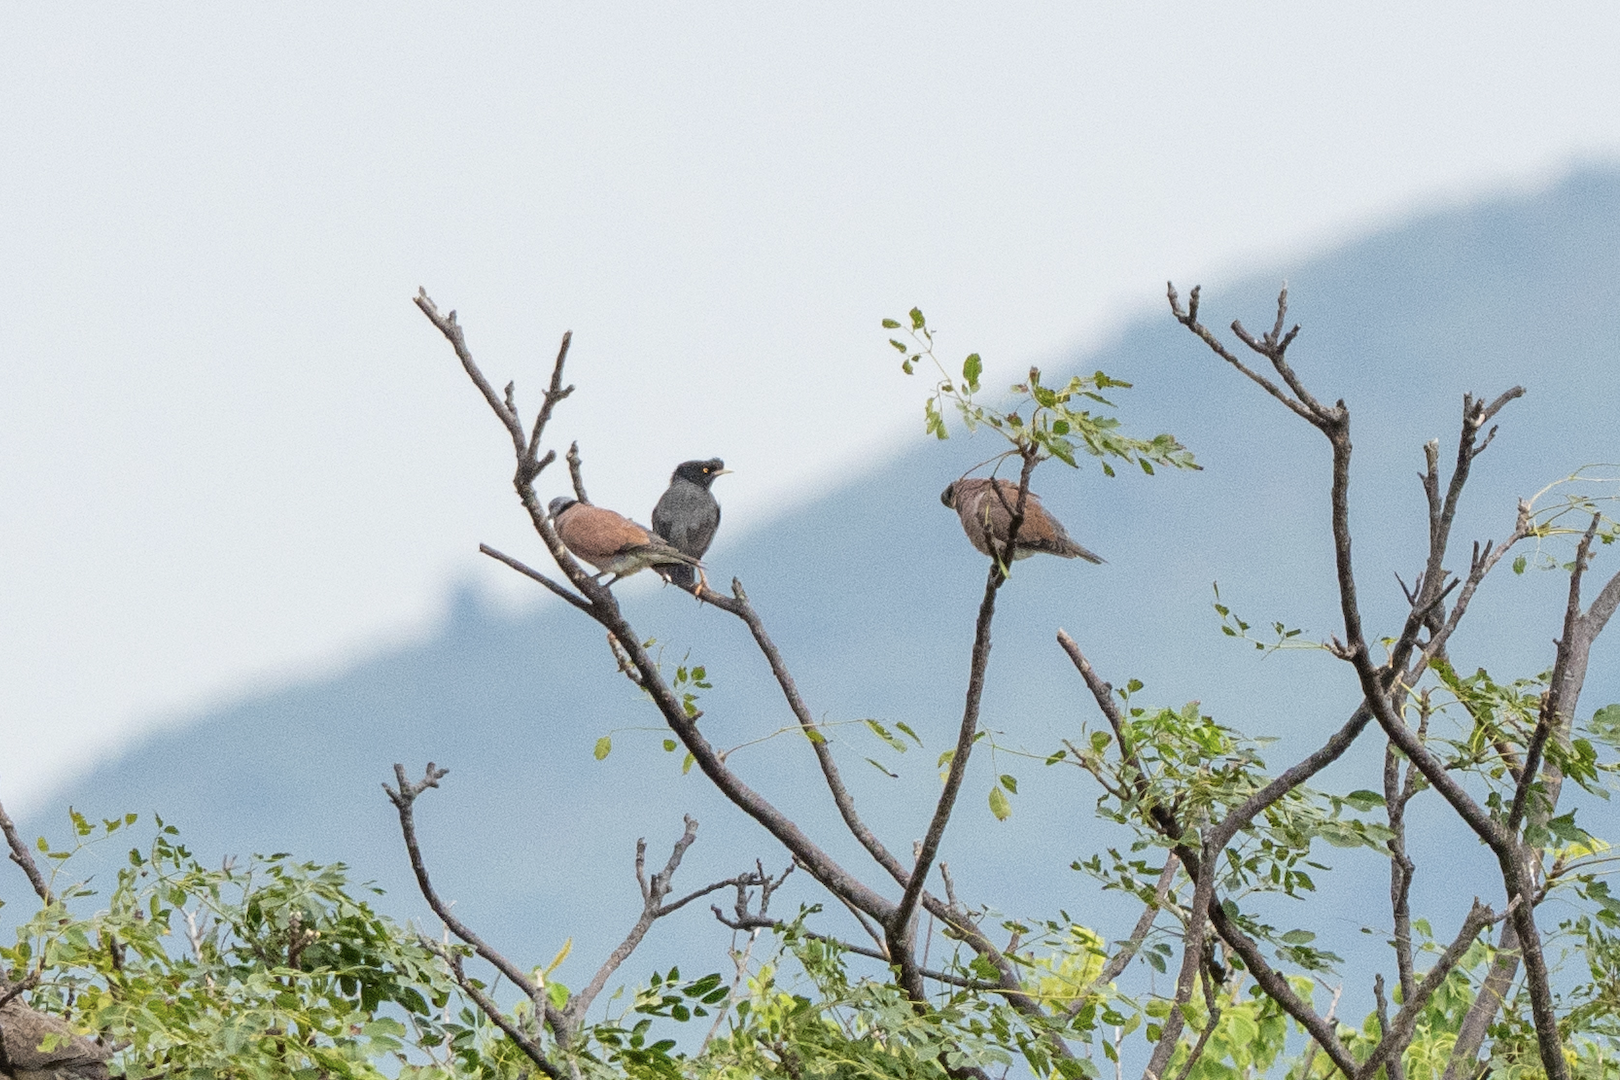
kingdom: Animalia
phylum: Chordata
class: Aves
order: Columbiformes
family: Columbidae
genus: Streptopelia
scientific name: Streptopelia tranquebarica
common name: Red turtle dove
